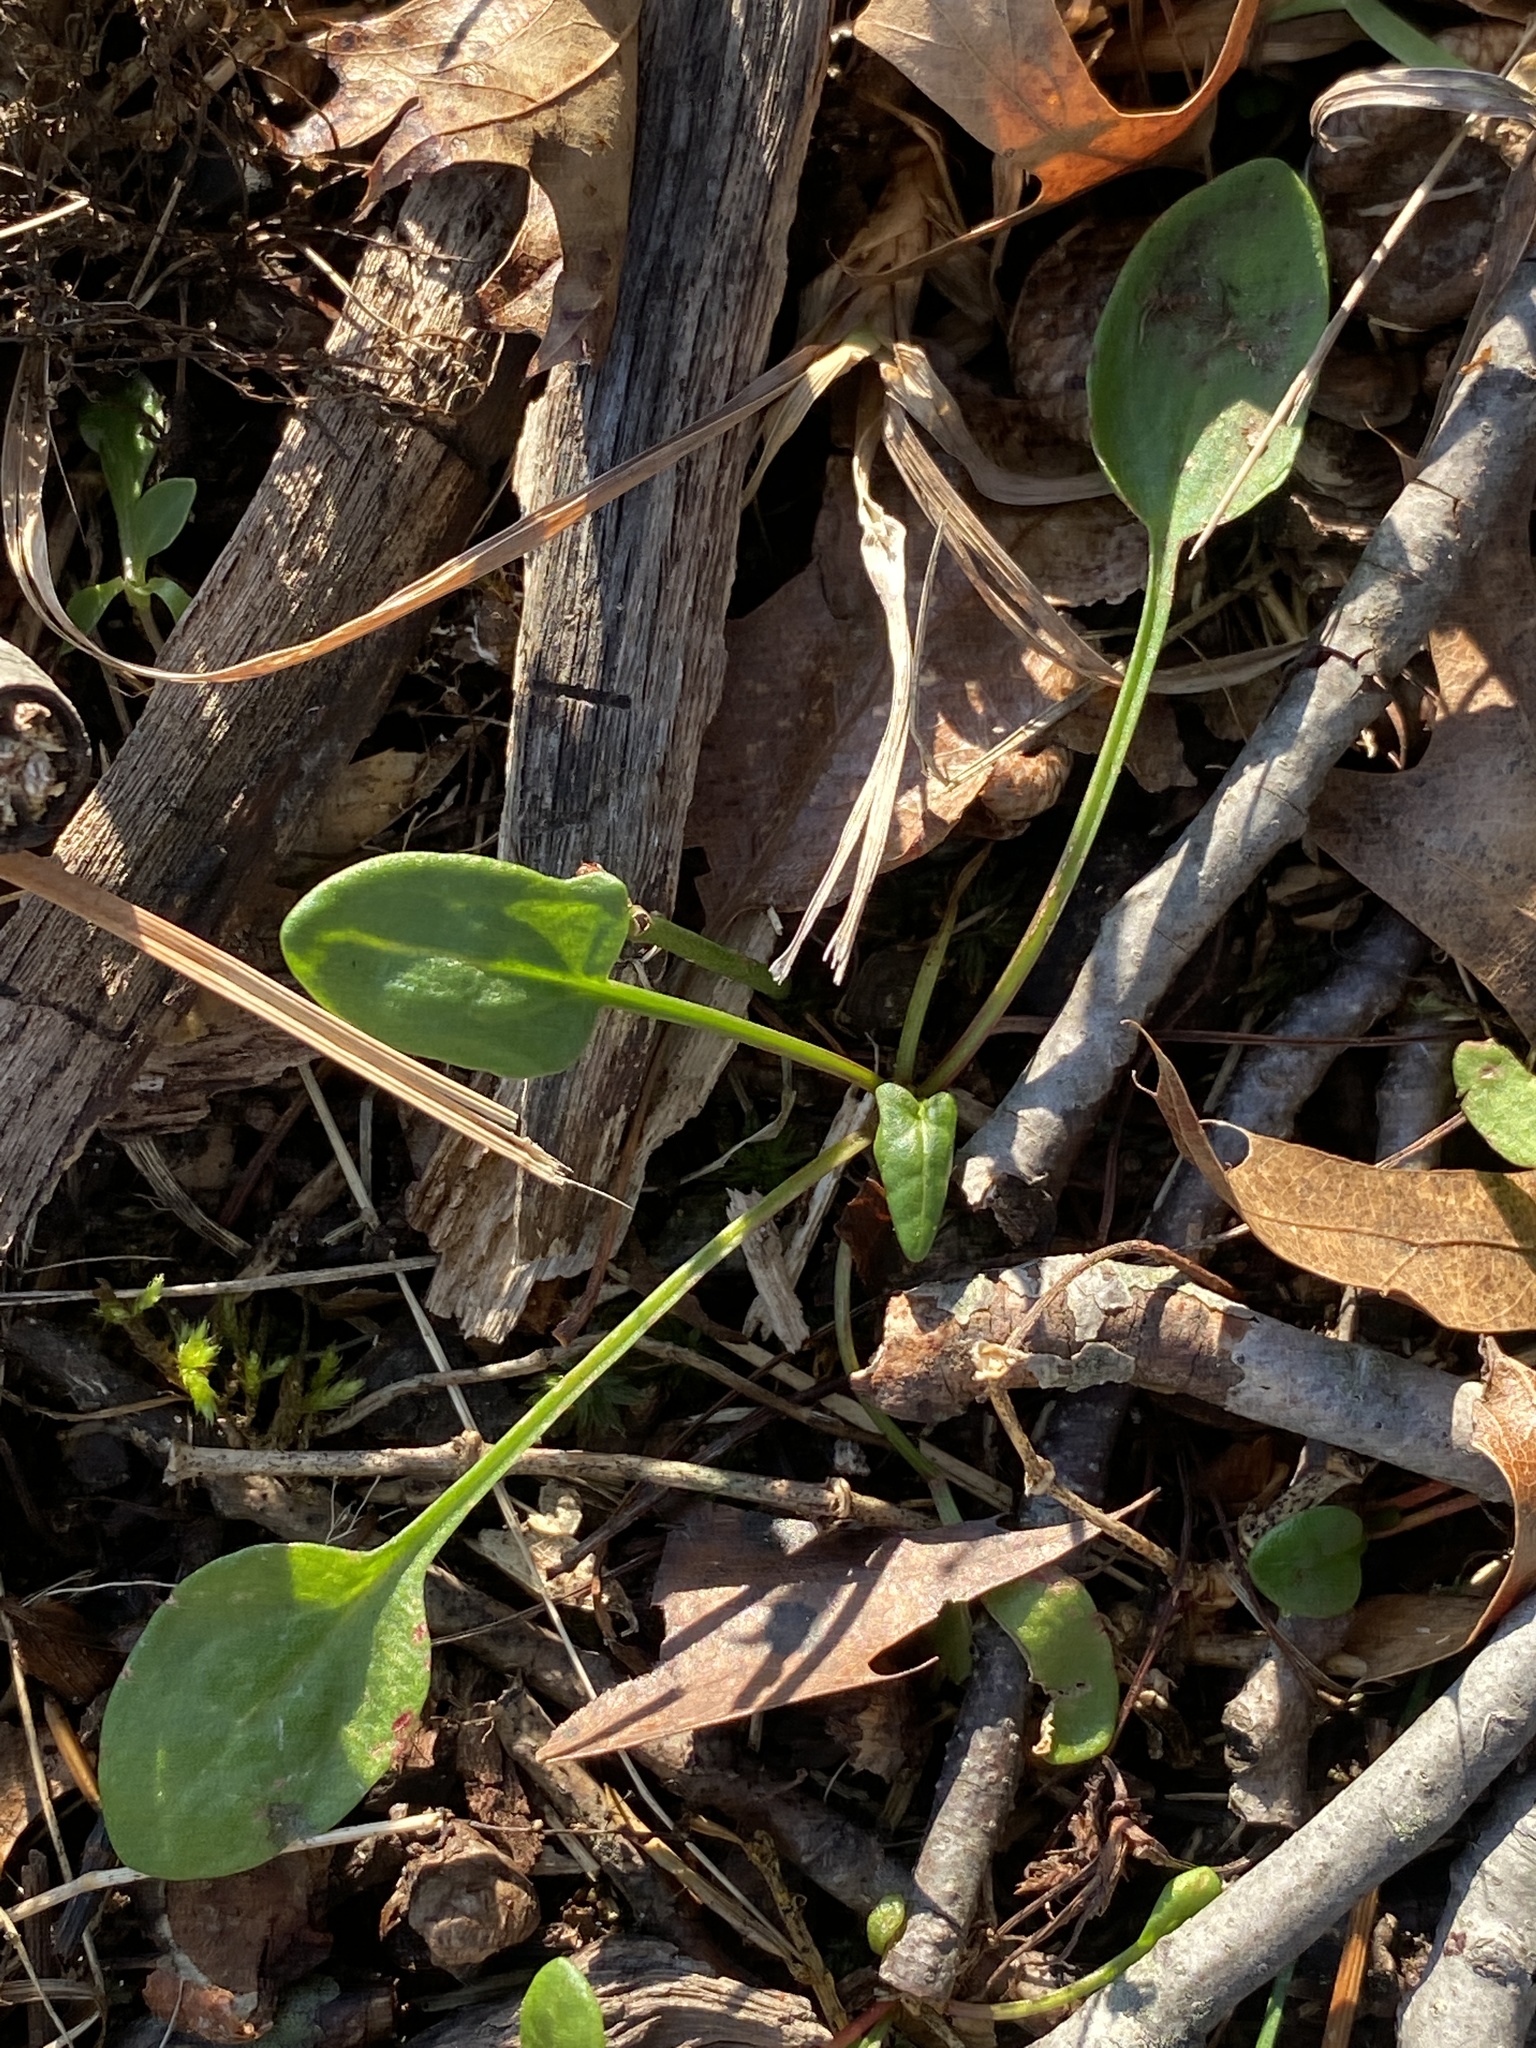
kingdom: Plantae
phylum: Tracheophyta
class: Magnoliopsida
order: Caryophyllales
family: Polygonaceae
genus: Rumex
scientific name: Rumex acetosella
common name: Common sheep sorrel
